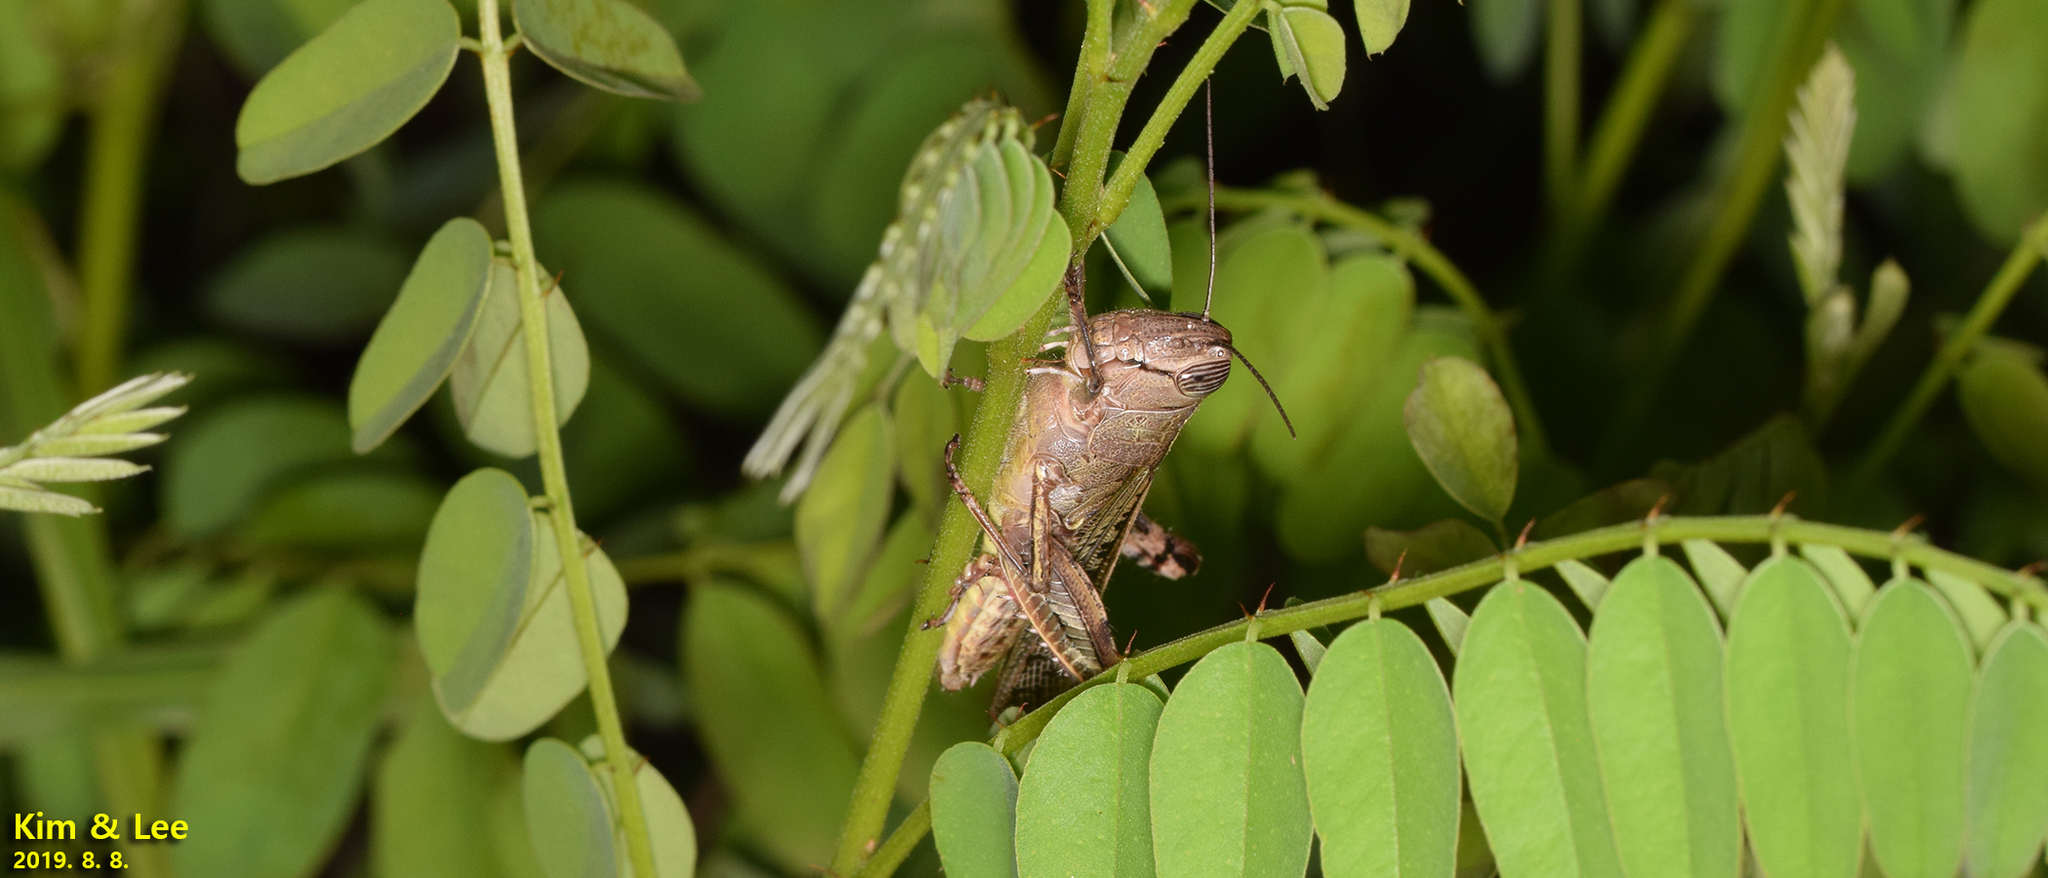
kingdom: Animalia
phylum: Arthropoda
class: Insecta
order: Orthoptera
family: Acrididae
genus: Shirakiacris
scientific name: Shirakiacris shirakii
